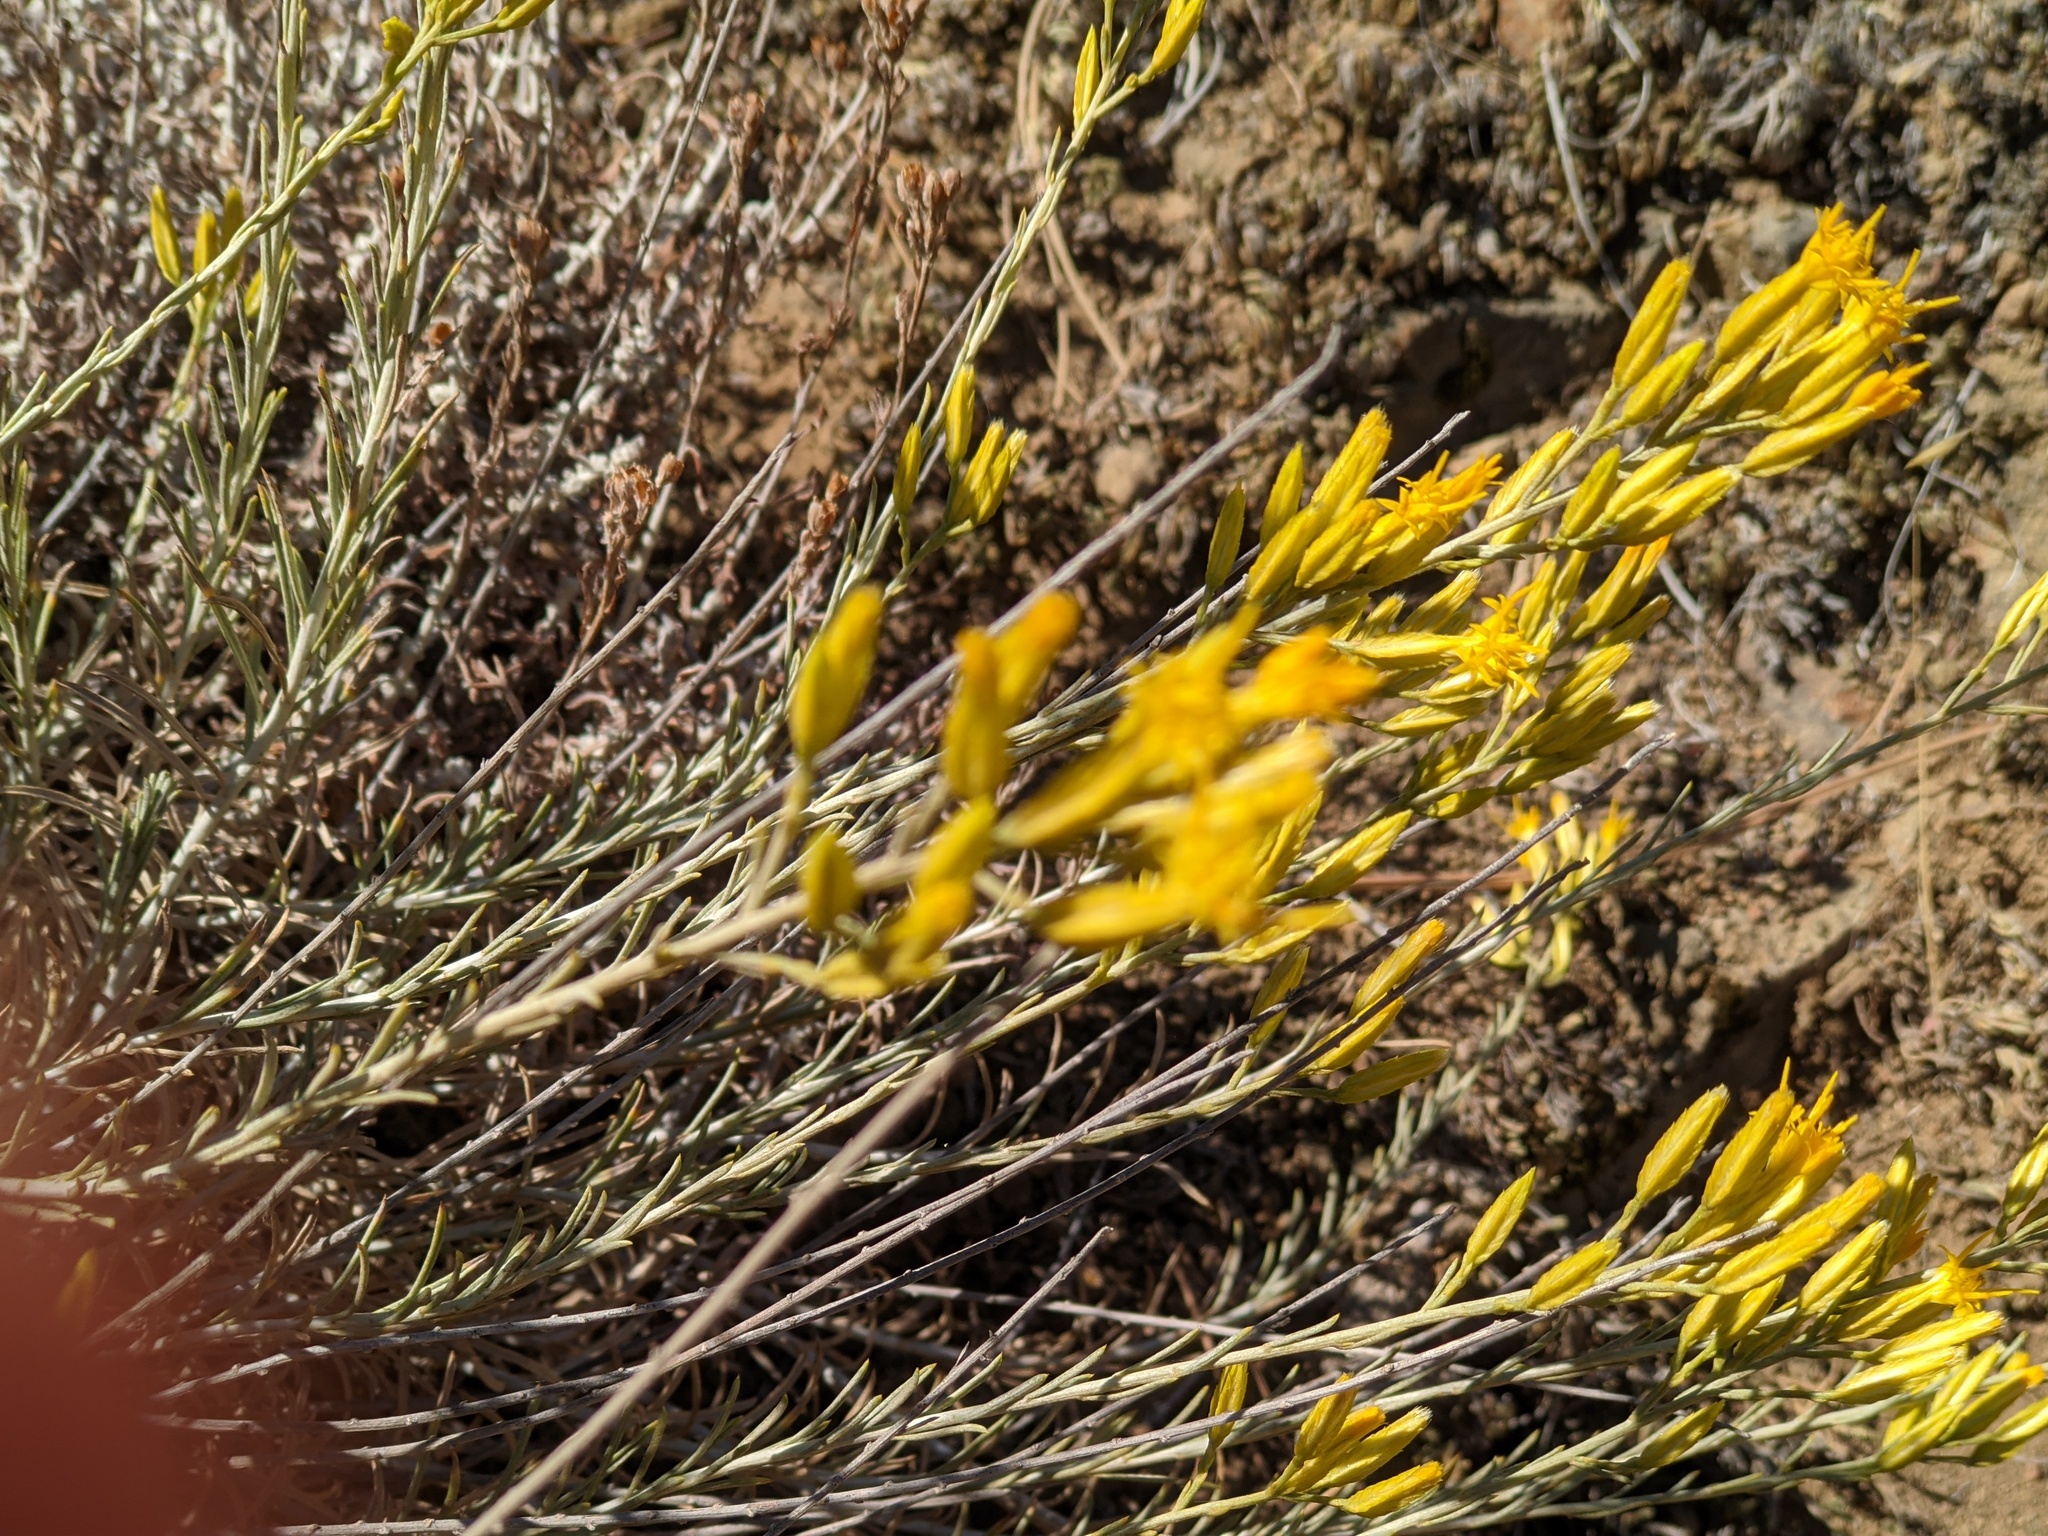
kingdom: Plantae
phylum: Tracheophyta
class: Magnoliopsida
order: Asterales
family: Asteraceae
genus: Ericameria
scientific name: Ericameria nauseosa
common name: Rubber rabbitbrush
